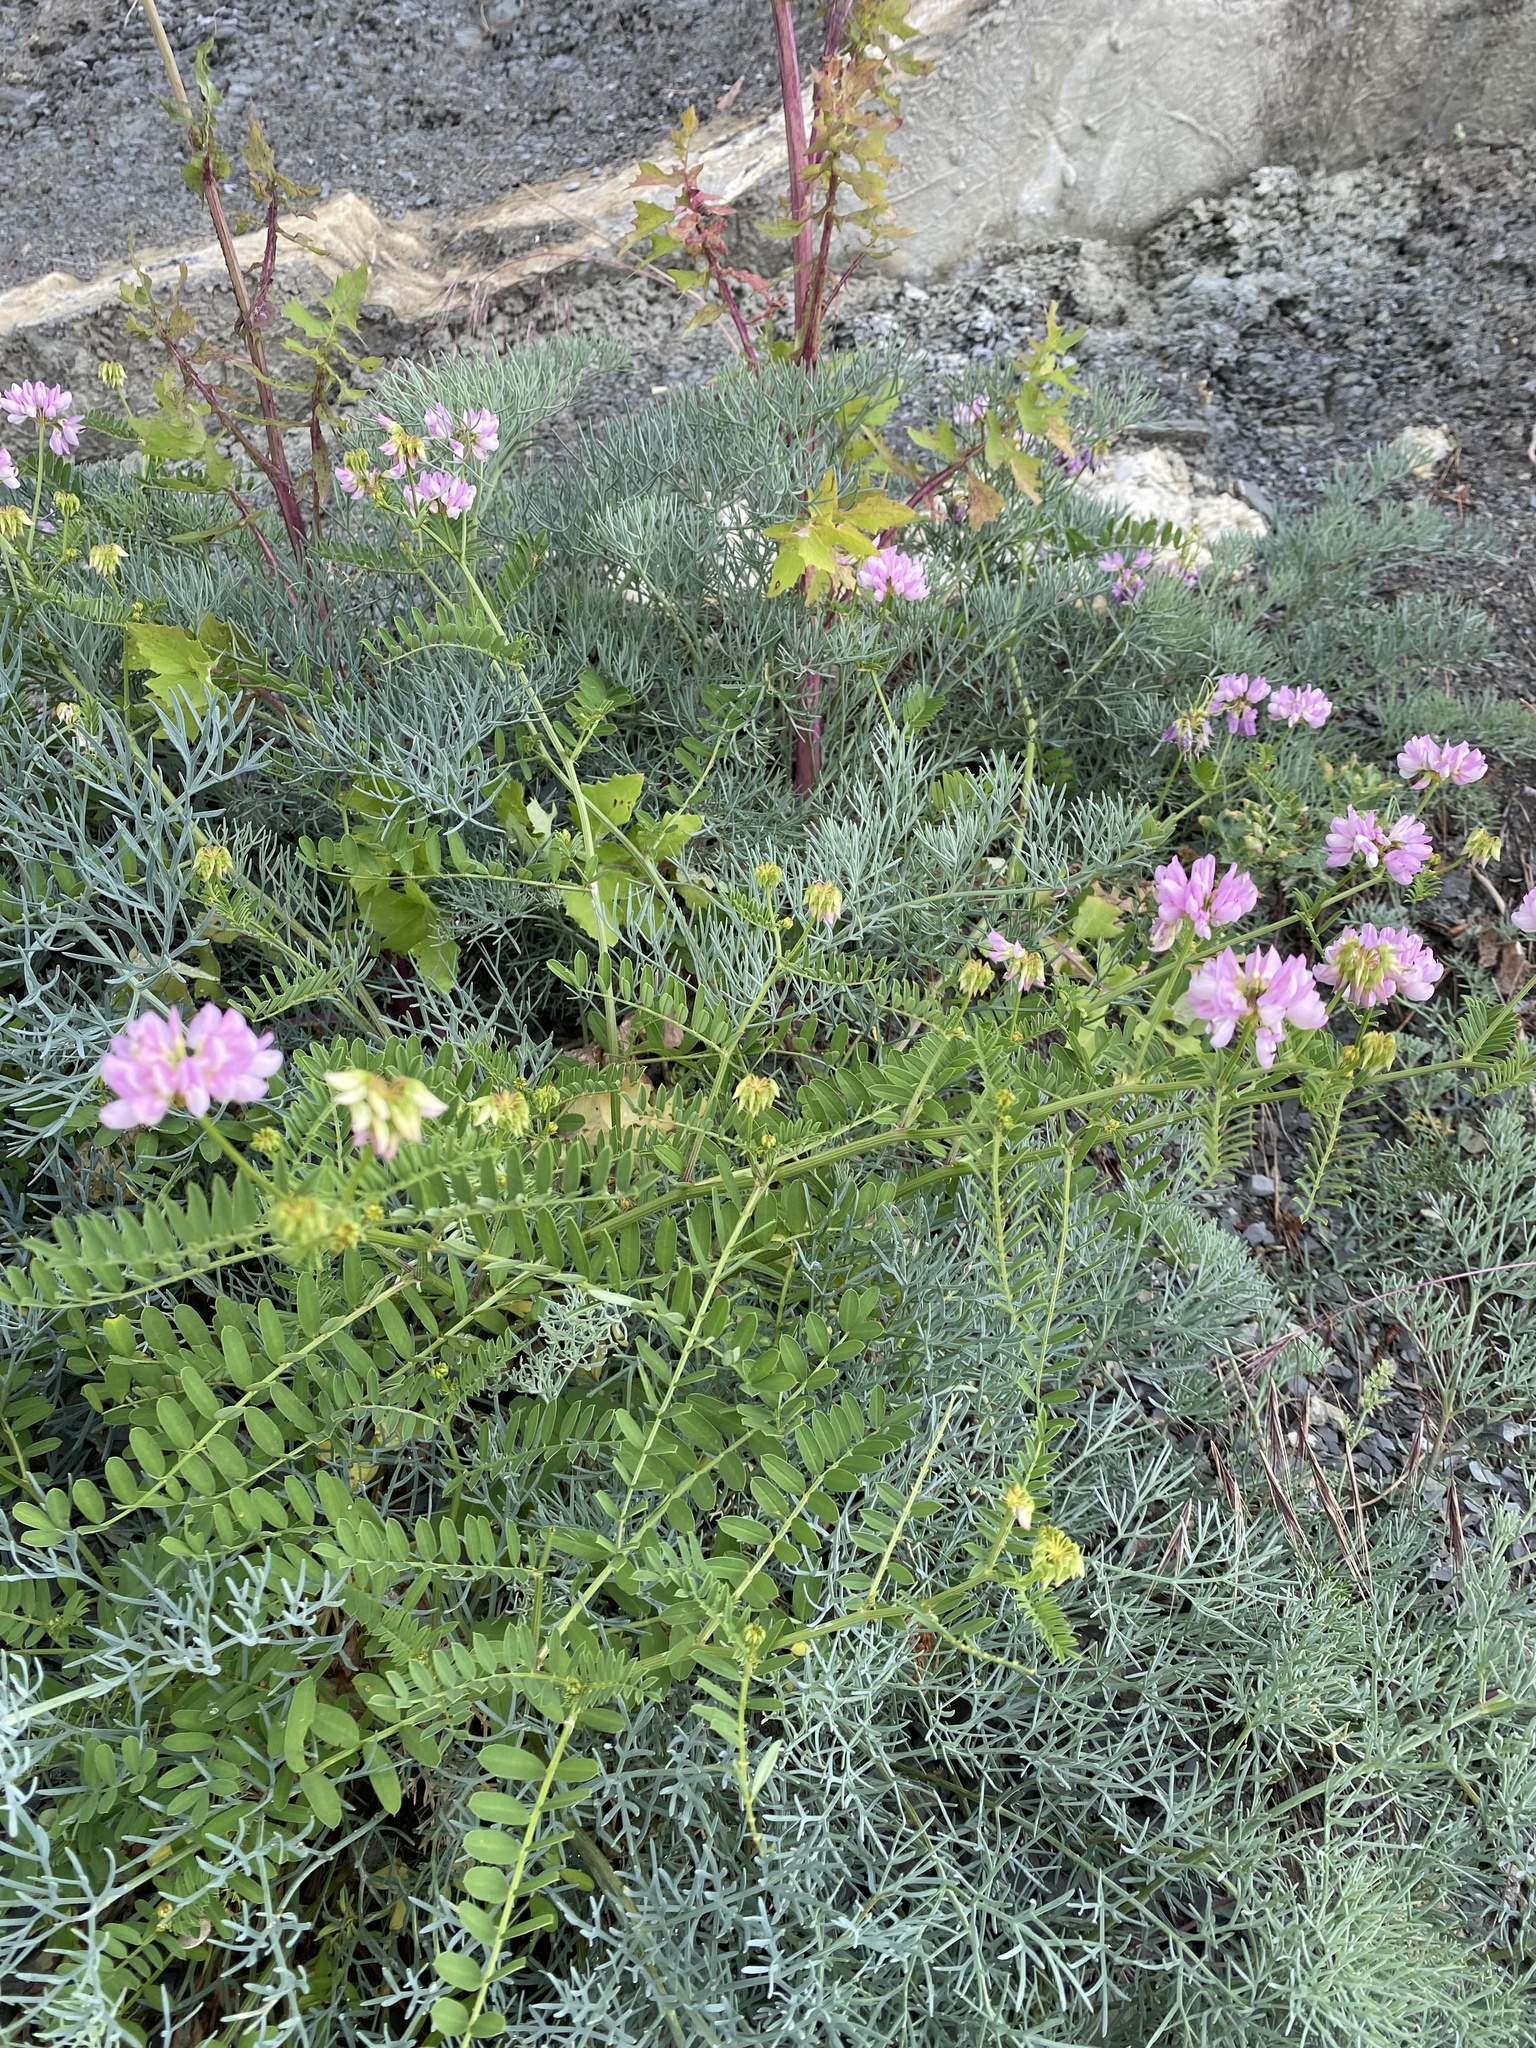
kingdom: Plantae
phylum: Tracheophyta
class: Magnoliopsida
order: Fabales
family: Fabaceae
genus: Coronilla
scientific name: Coronilla varia
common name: Crownvetch
